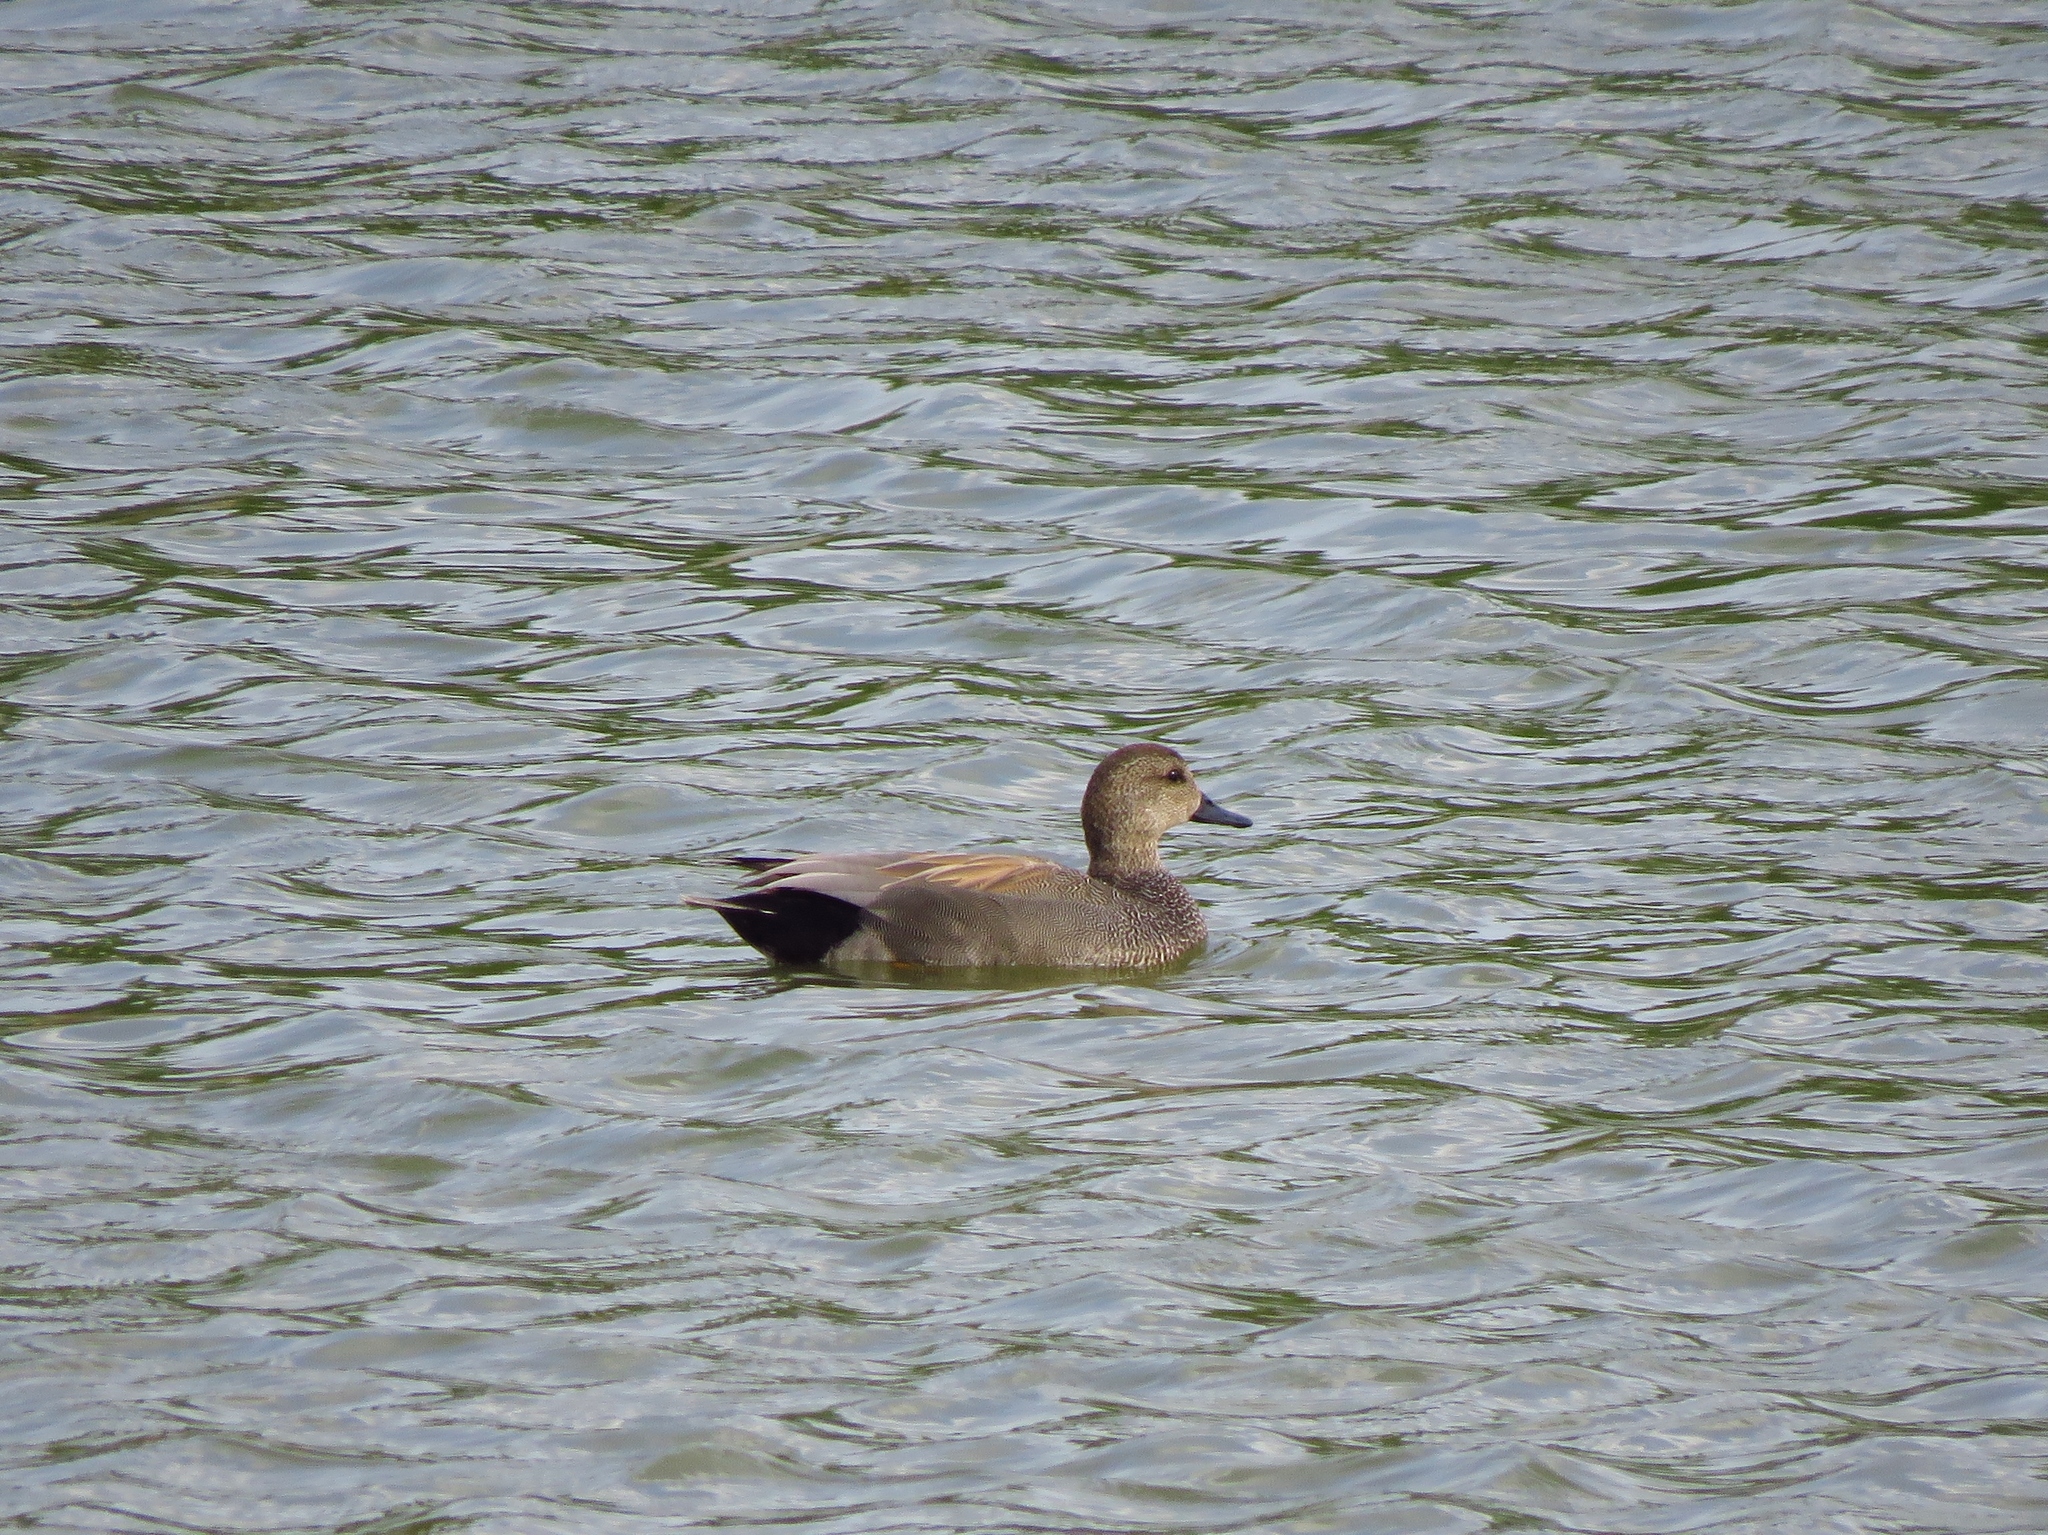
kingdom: Animalia
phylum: Chordata
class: Aves
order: Anseriformes
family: Anatidae
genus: Mareca
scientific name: Mareca strepera
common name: Gadwall
